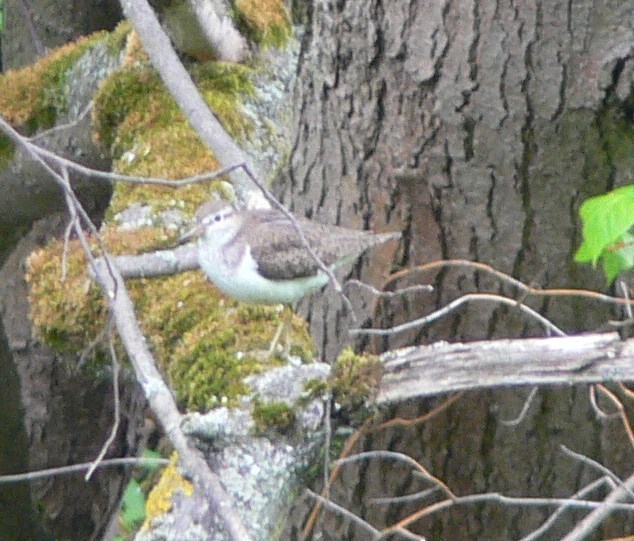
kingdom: Animalia
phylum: Chordata
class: Aves
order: Charadriiformes
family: Scolopacidae
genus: Actitis
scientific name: Actitis hypoleucos
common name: Common sandpiper
